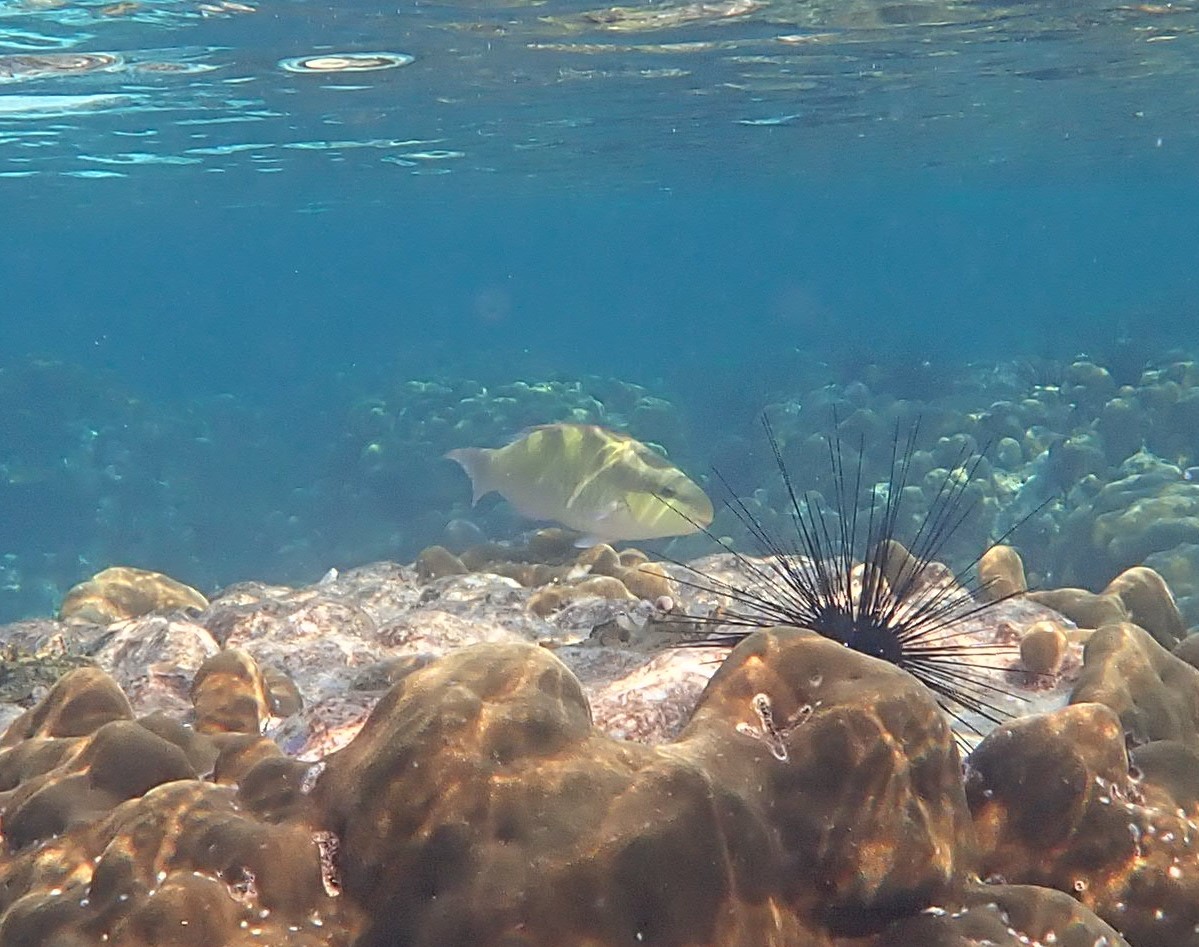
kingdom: Animalia
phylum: Chordata
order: Perciformes
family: Scaridae
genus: Scarus
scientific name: Scarus dimidiatus
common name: Yellowbarred parrotfish
